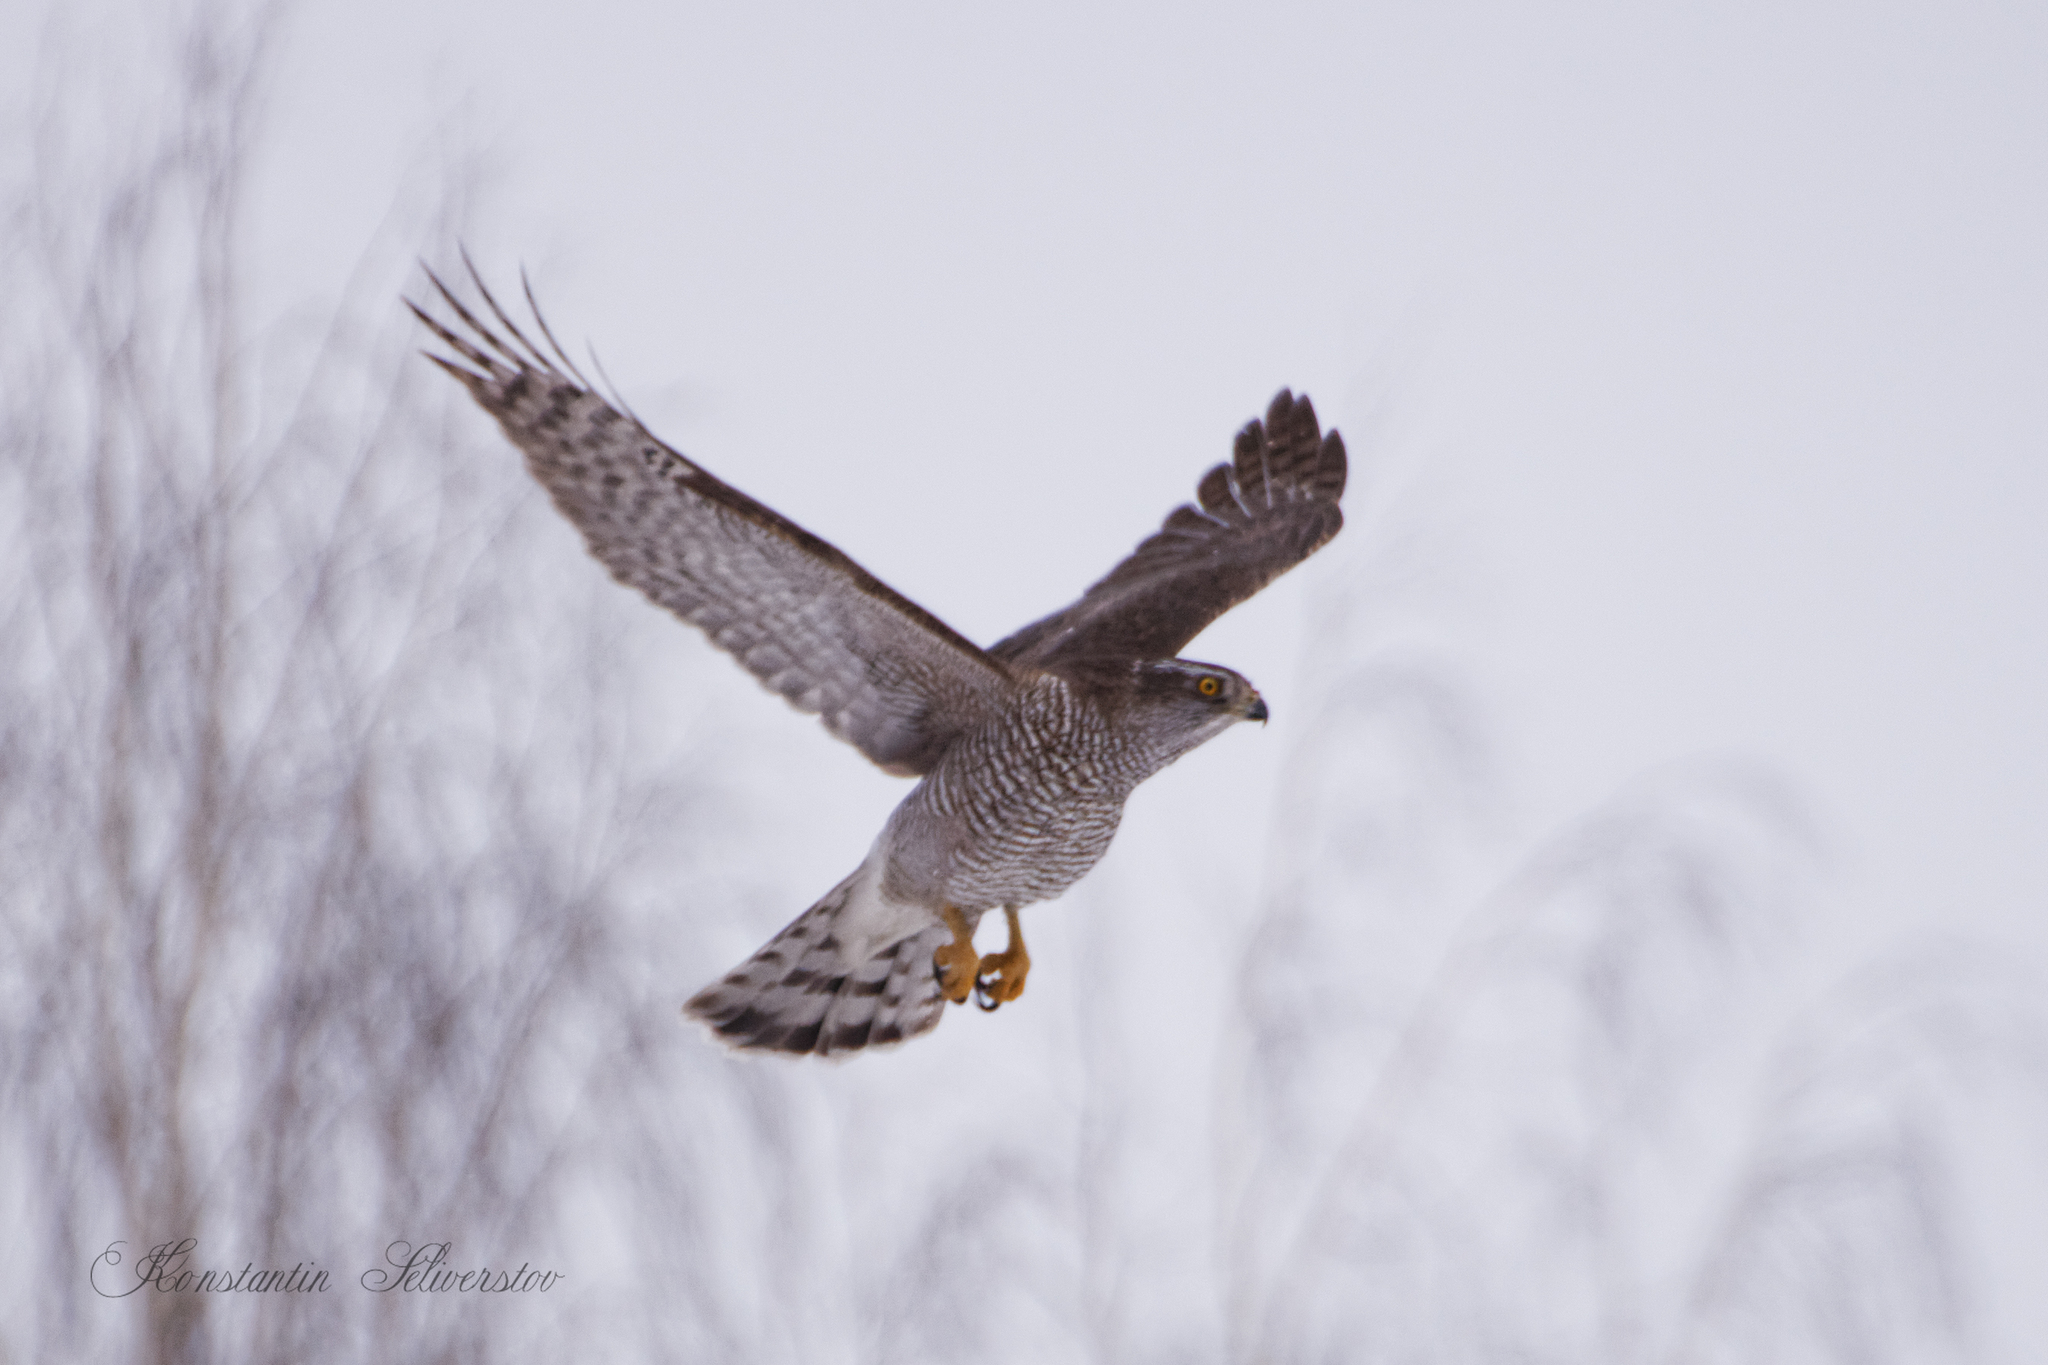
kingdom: Animalia
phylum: Chordata
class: Aves
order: Accipitriformes
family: Accipitridae
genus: Accipiter
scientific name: Accipiter gentilis
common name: Northern goshawk
